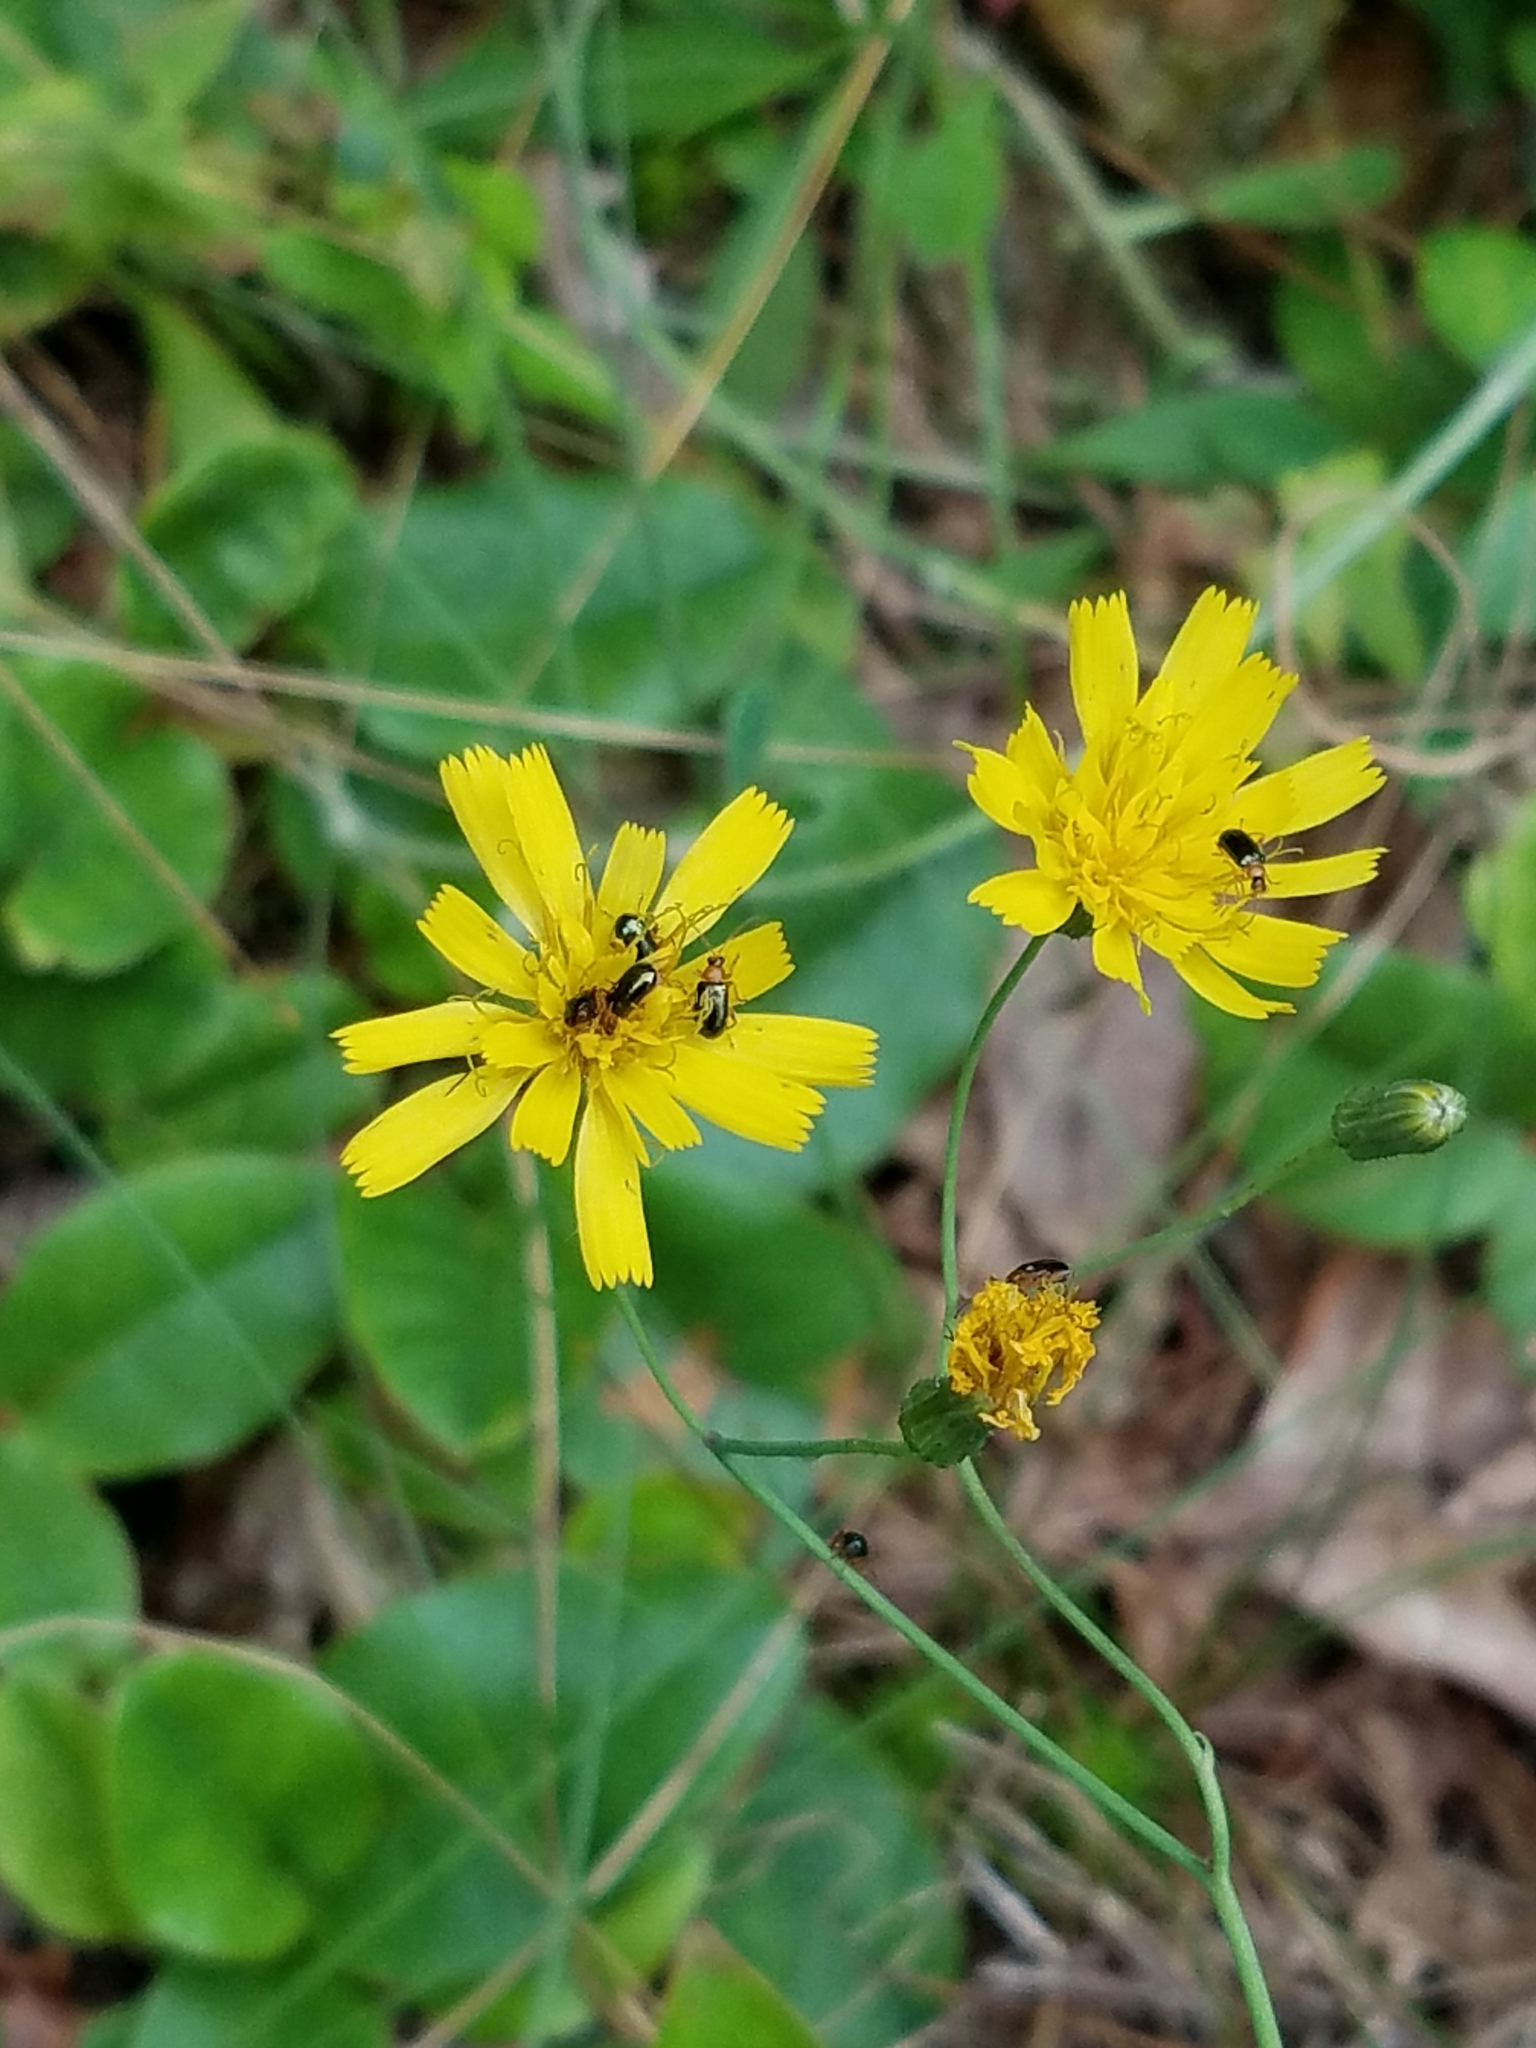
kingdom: Plantae
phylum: Tracheophyta
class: Magnoliopsida
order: Asterales
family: Asteraceae
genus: Hieracium
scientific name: Hieracium venosum
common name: Rattlesnake hawkweed
